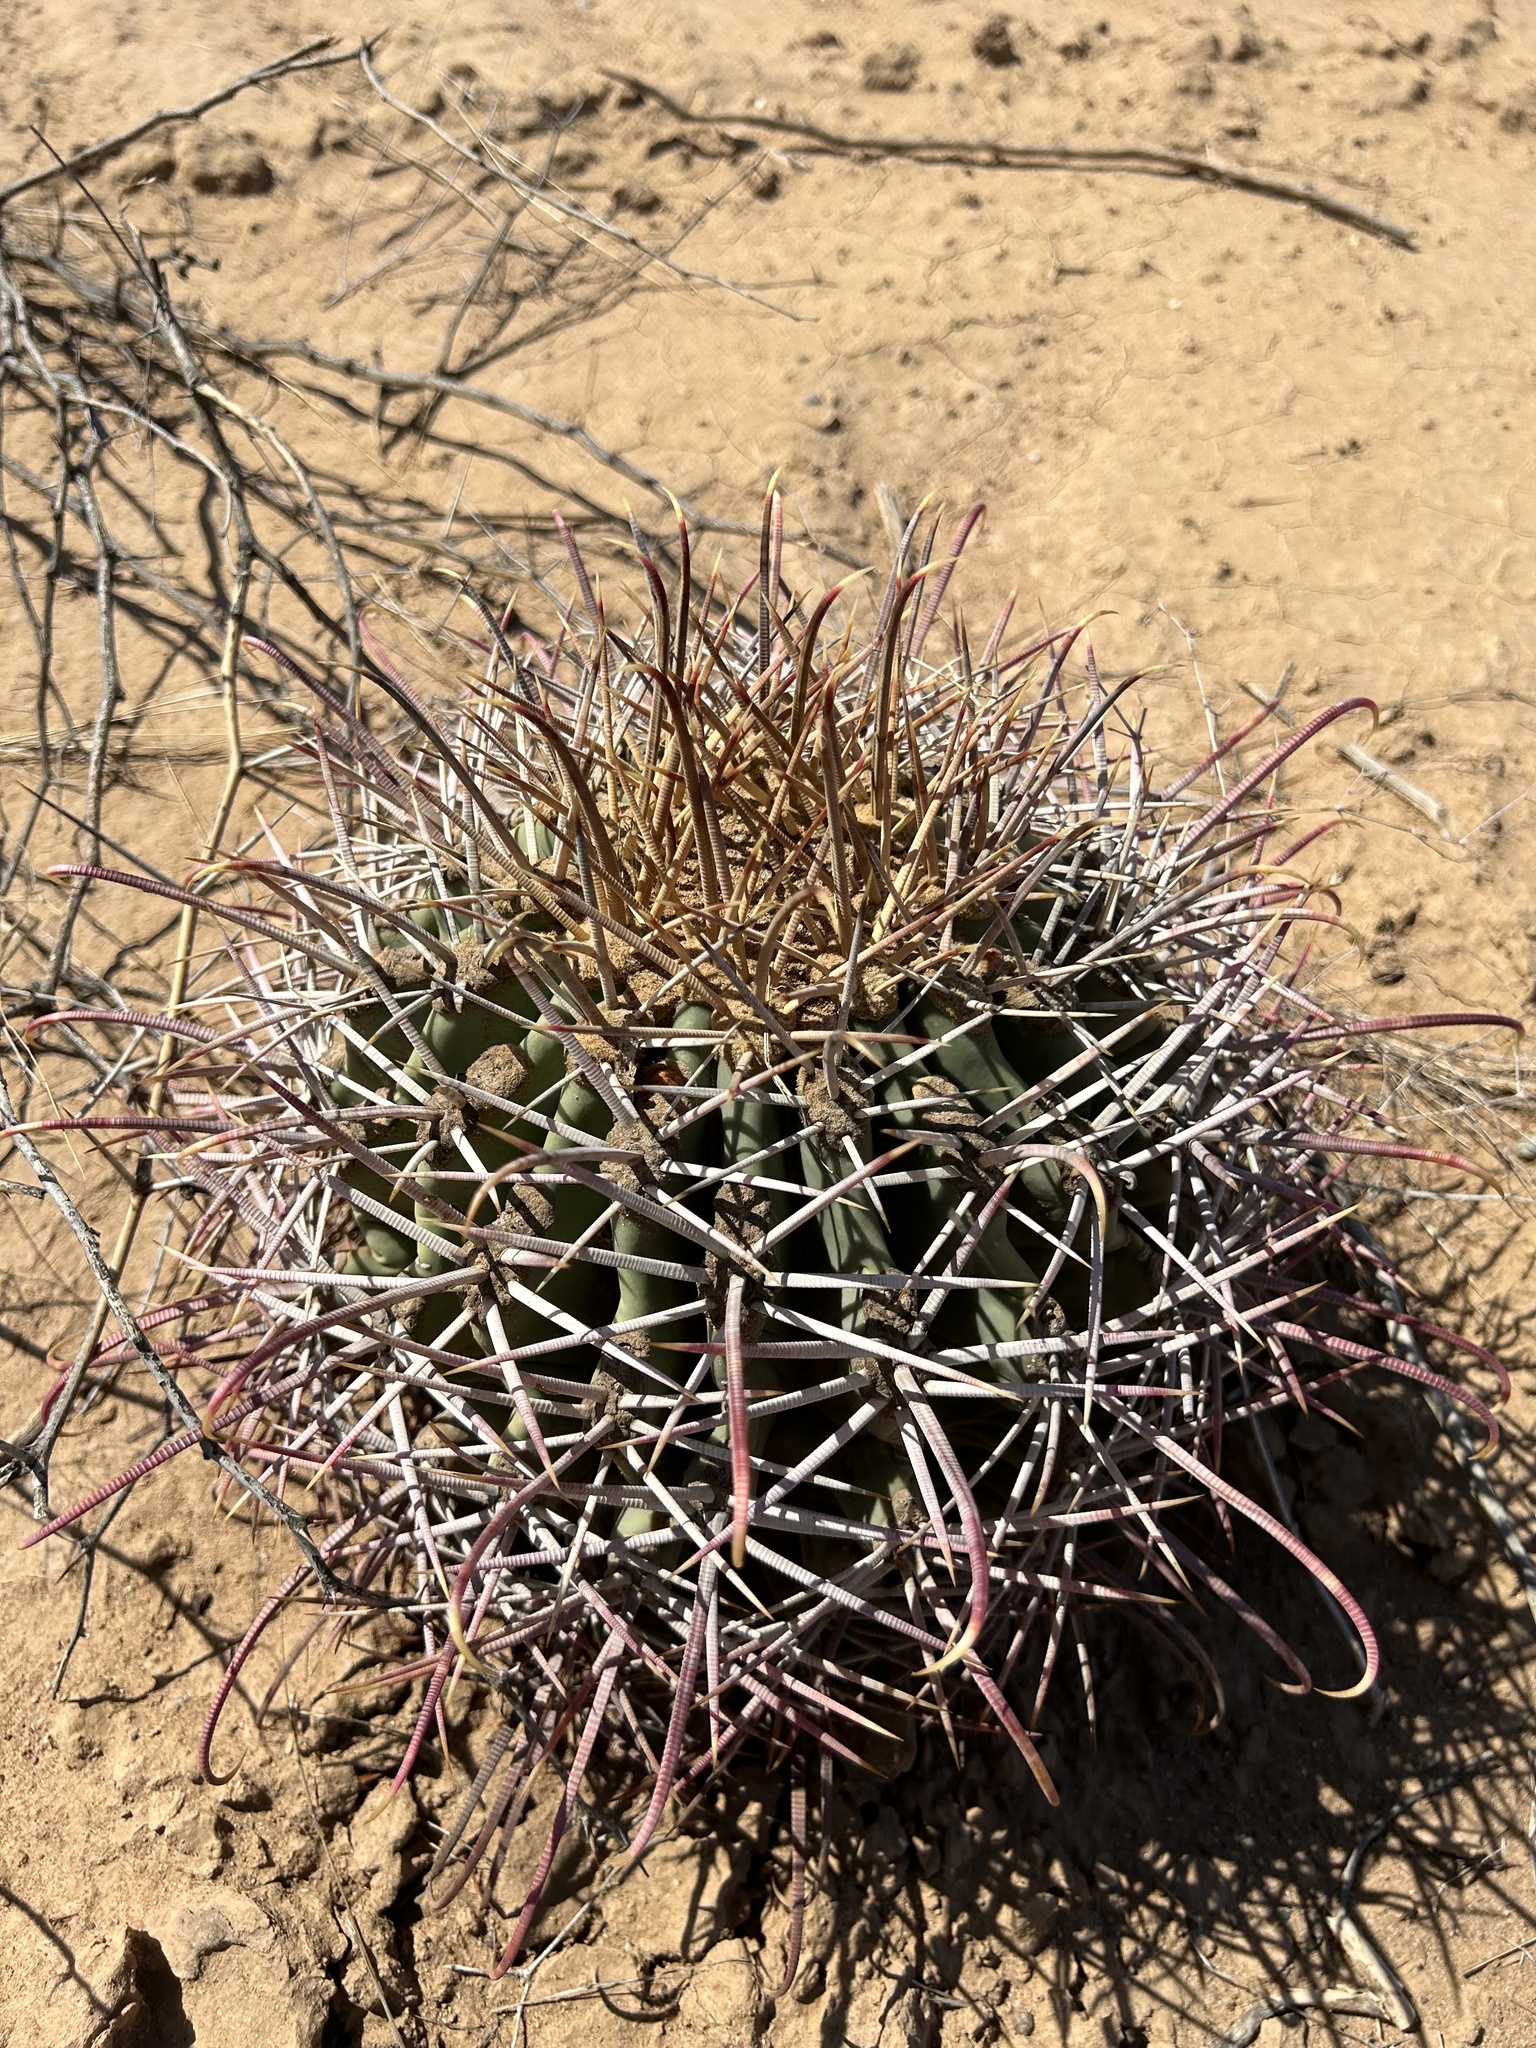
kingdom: Plantae
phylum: Tracheophyta
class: Magnoliopsida
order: Caryophyllales
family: Cactaceae
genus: Ferocactus
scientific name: Ferocactus emoryi
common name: Emory's barrel cactus
